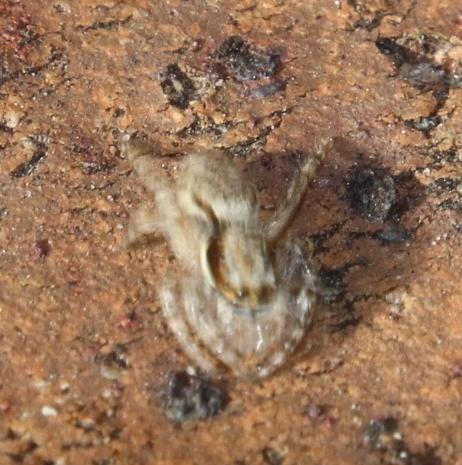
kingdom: Animalia
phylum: Arthropoda
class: Arachnida
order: Araneae
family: Salticidae
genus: Menemerus
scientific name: Menemerus bivittatus
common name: Gray wall jumper
